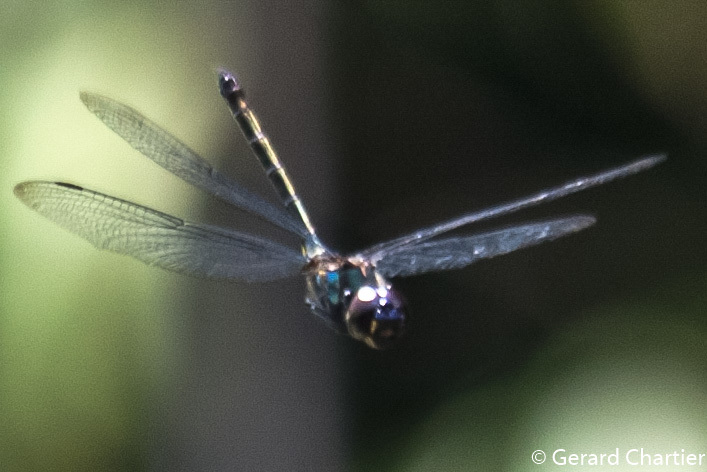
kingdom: Animalia
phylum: Arthropoda
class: Insecta
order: Odonata
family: Libellulidae
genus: Zygonyx
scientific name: Zygonyx iris
